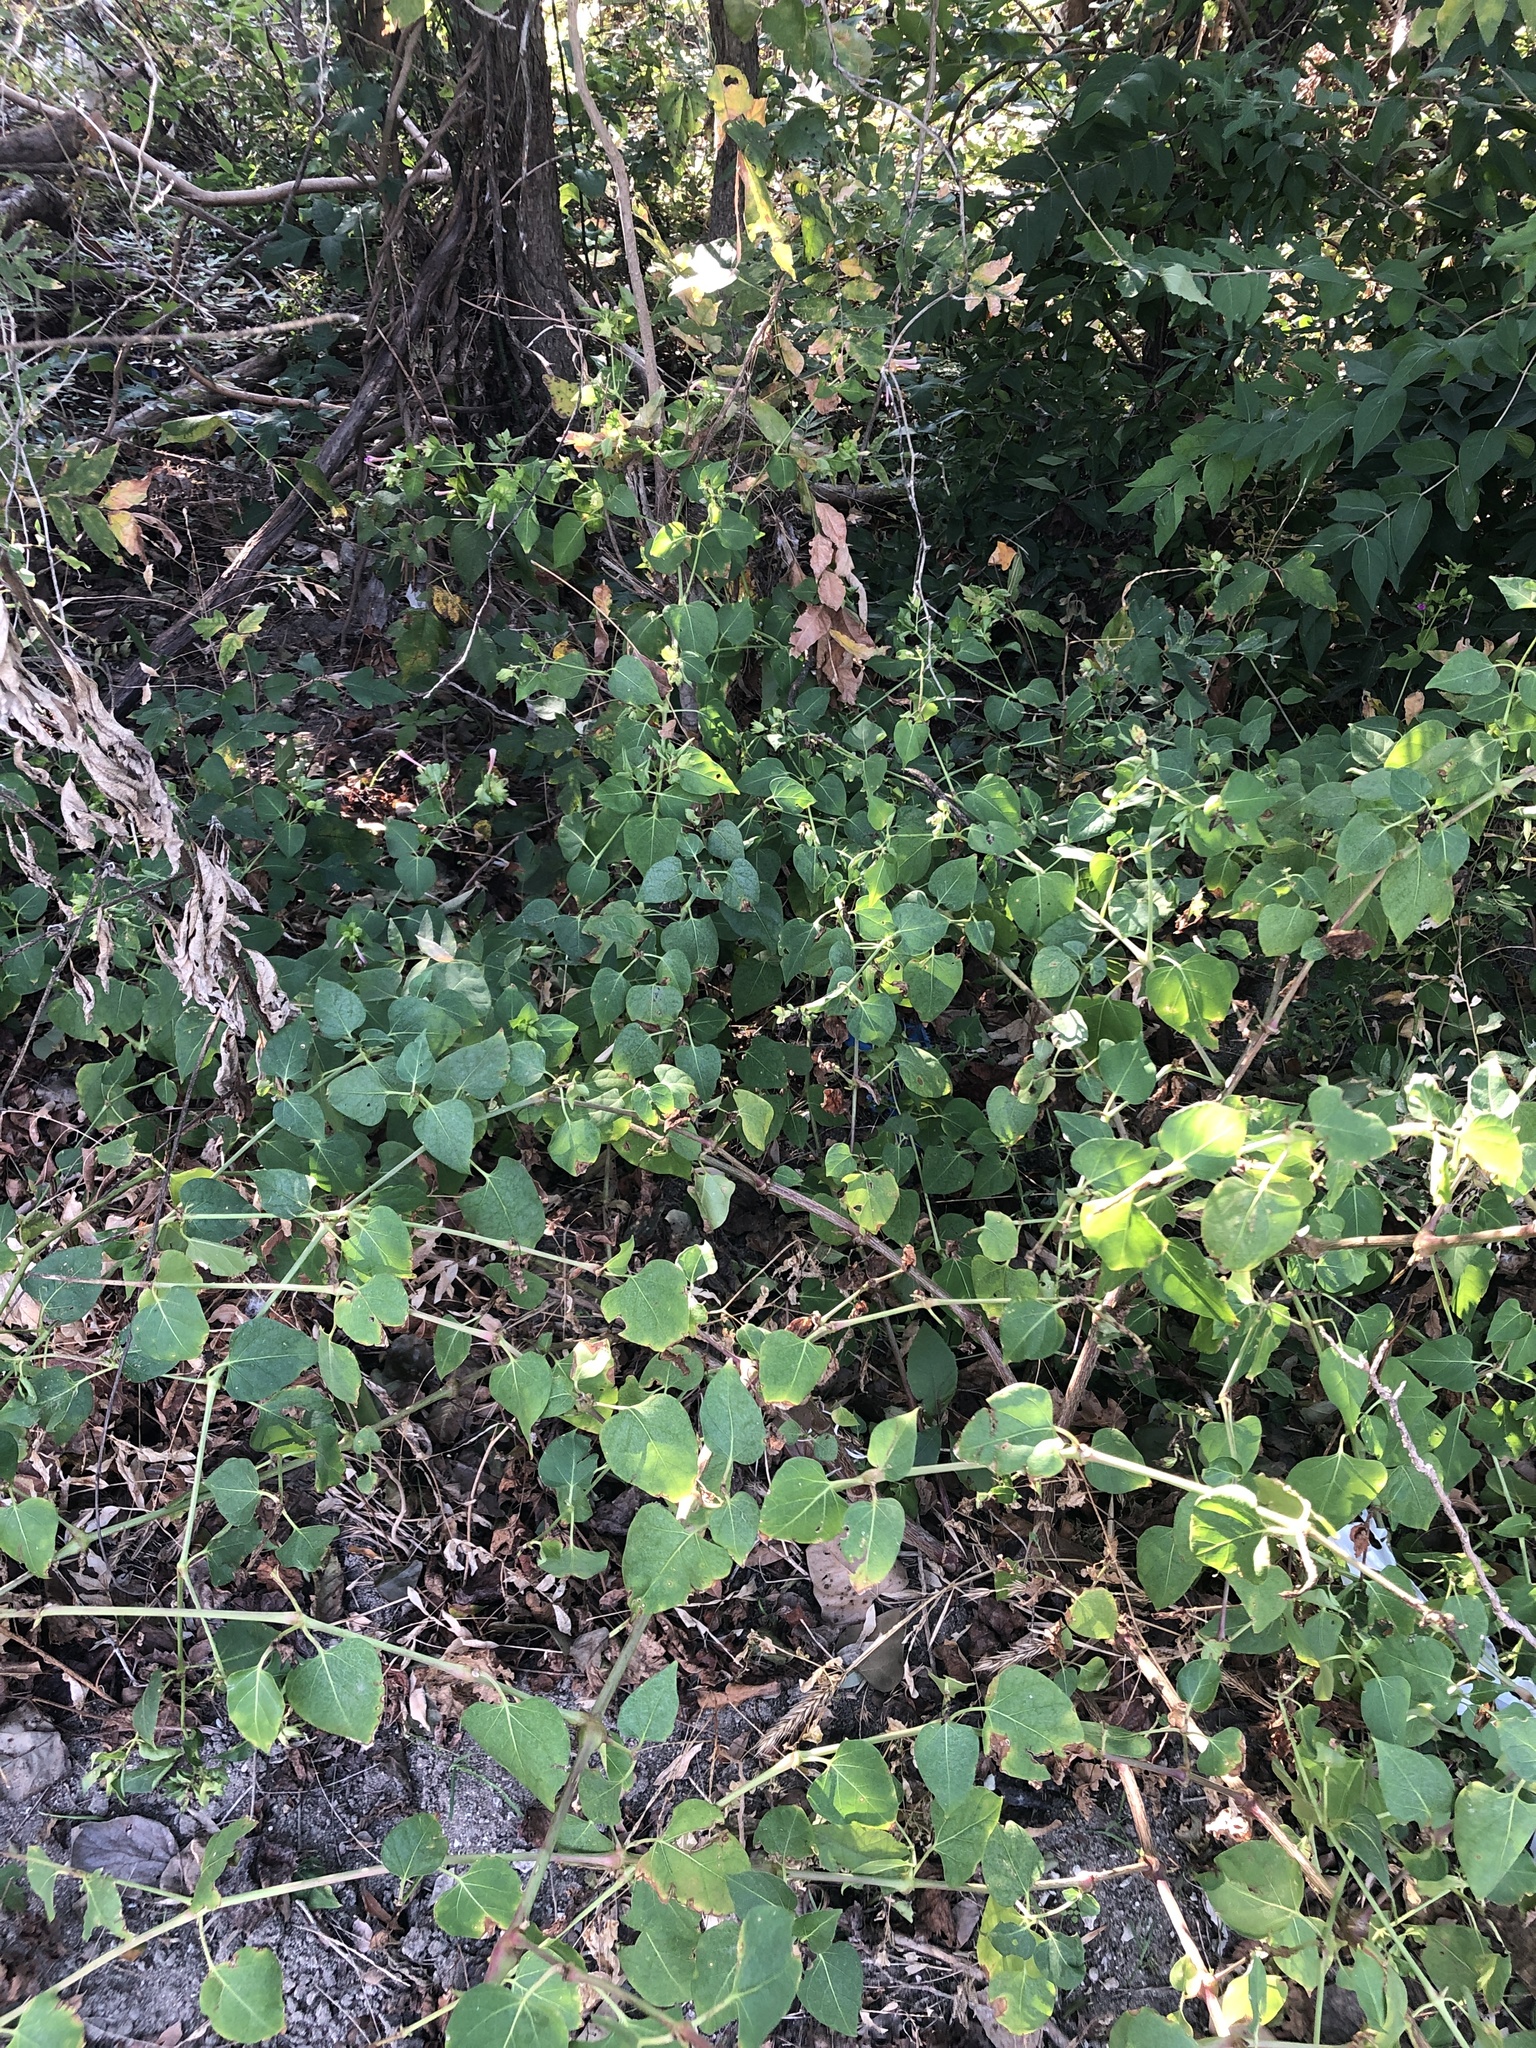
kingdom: Plantae
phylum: Tracheophyta
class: Magnoliopsida
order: Caryophyllales
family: Nyctaginaceae
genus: Mirabilis
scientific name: Mirabilis jalapa
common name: Marvel-of-peru
